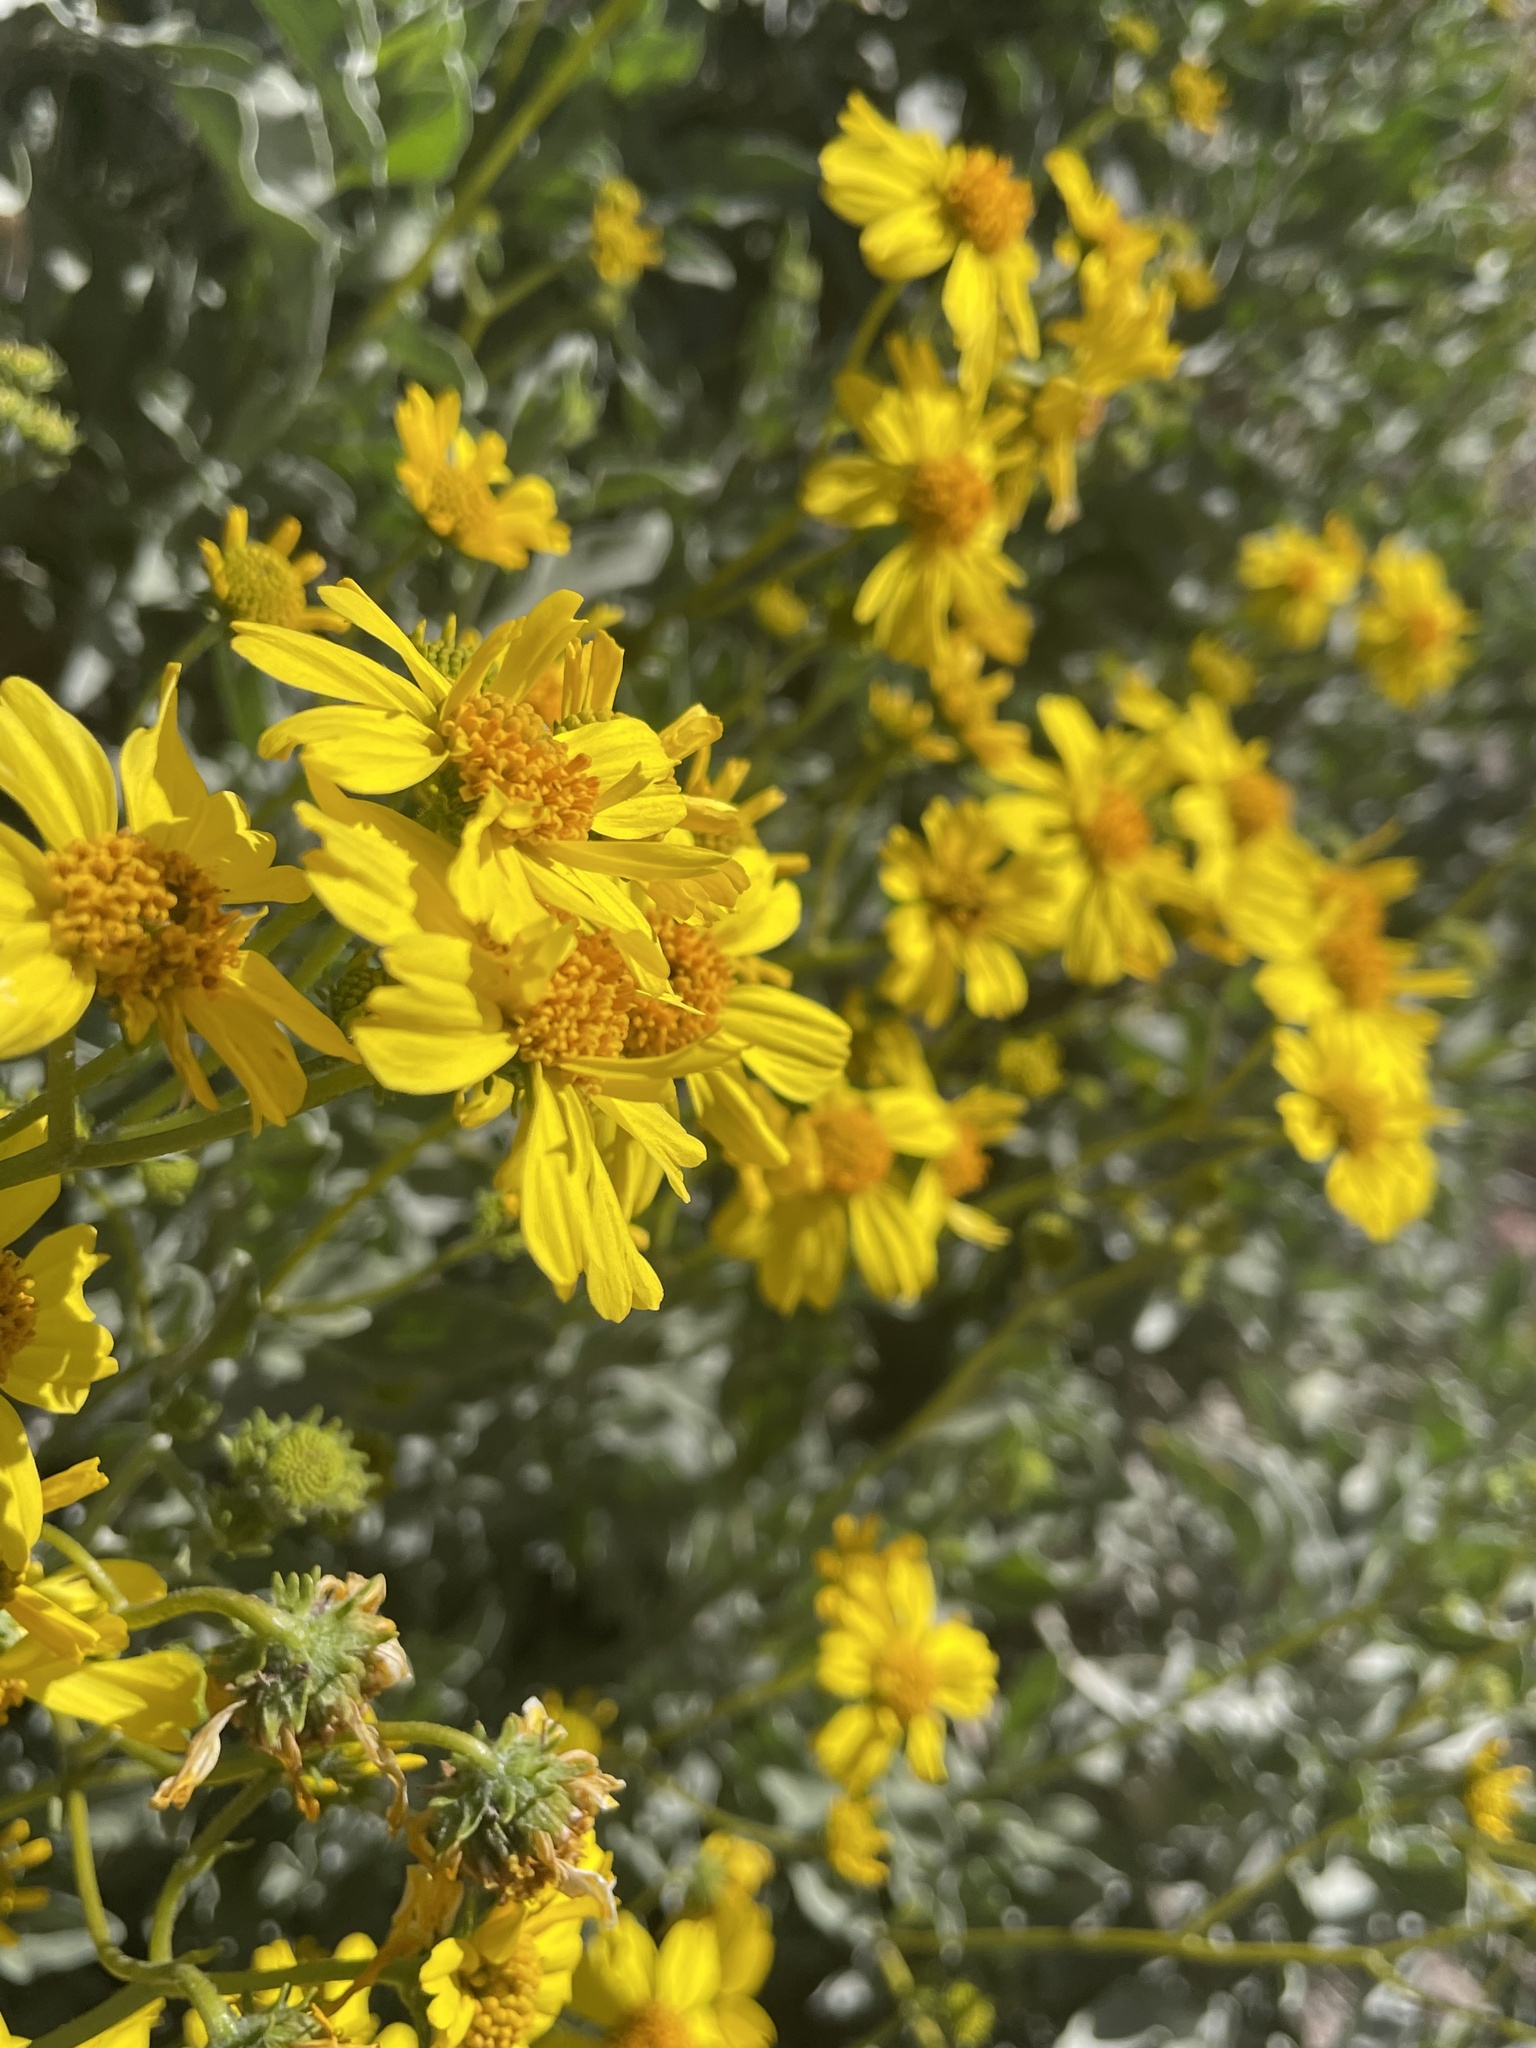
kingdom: Plantae
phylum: Tracheophyta
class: Magnoliopsida
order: Asterales
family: Asteraceae
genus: Encelia
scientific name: Encelia farinosa
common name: Brittlebush
